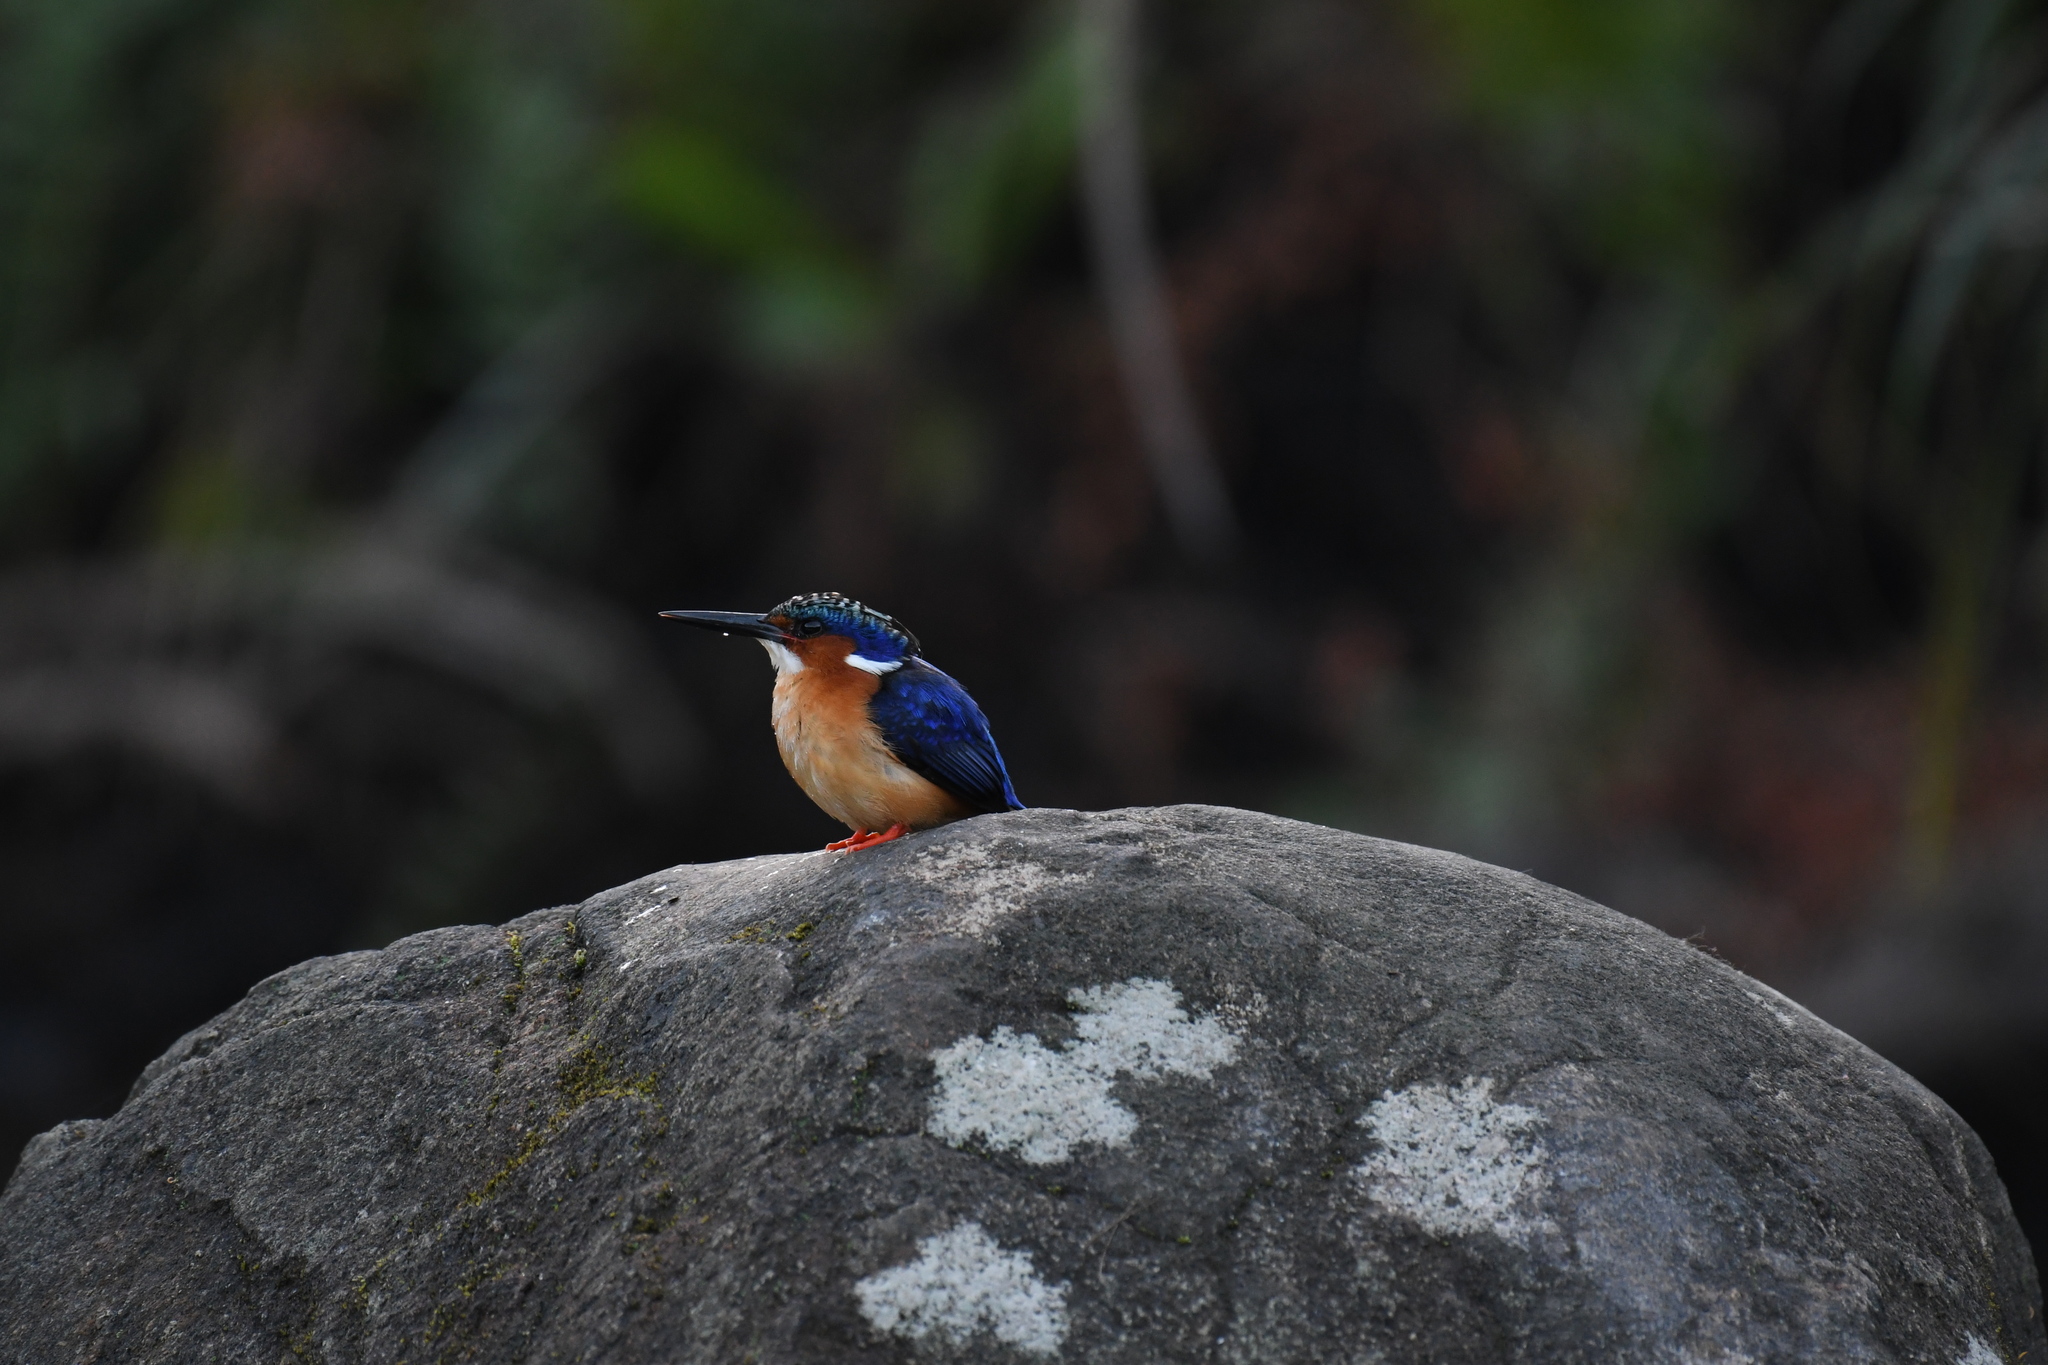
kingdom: Animalia
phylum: Chordata
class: Aves
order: Coraciiformes
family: Alcedinidae
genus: Corythornis
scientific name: Corythornis vintsioides
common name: Malagasy kingfisher
